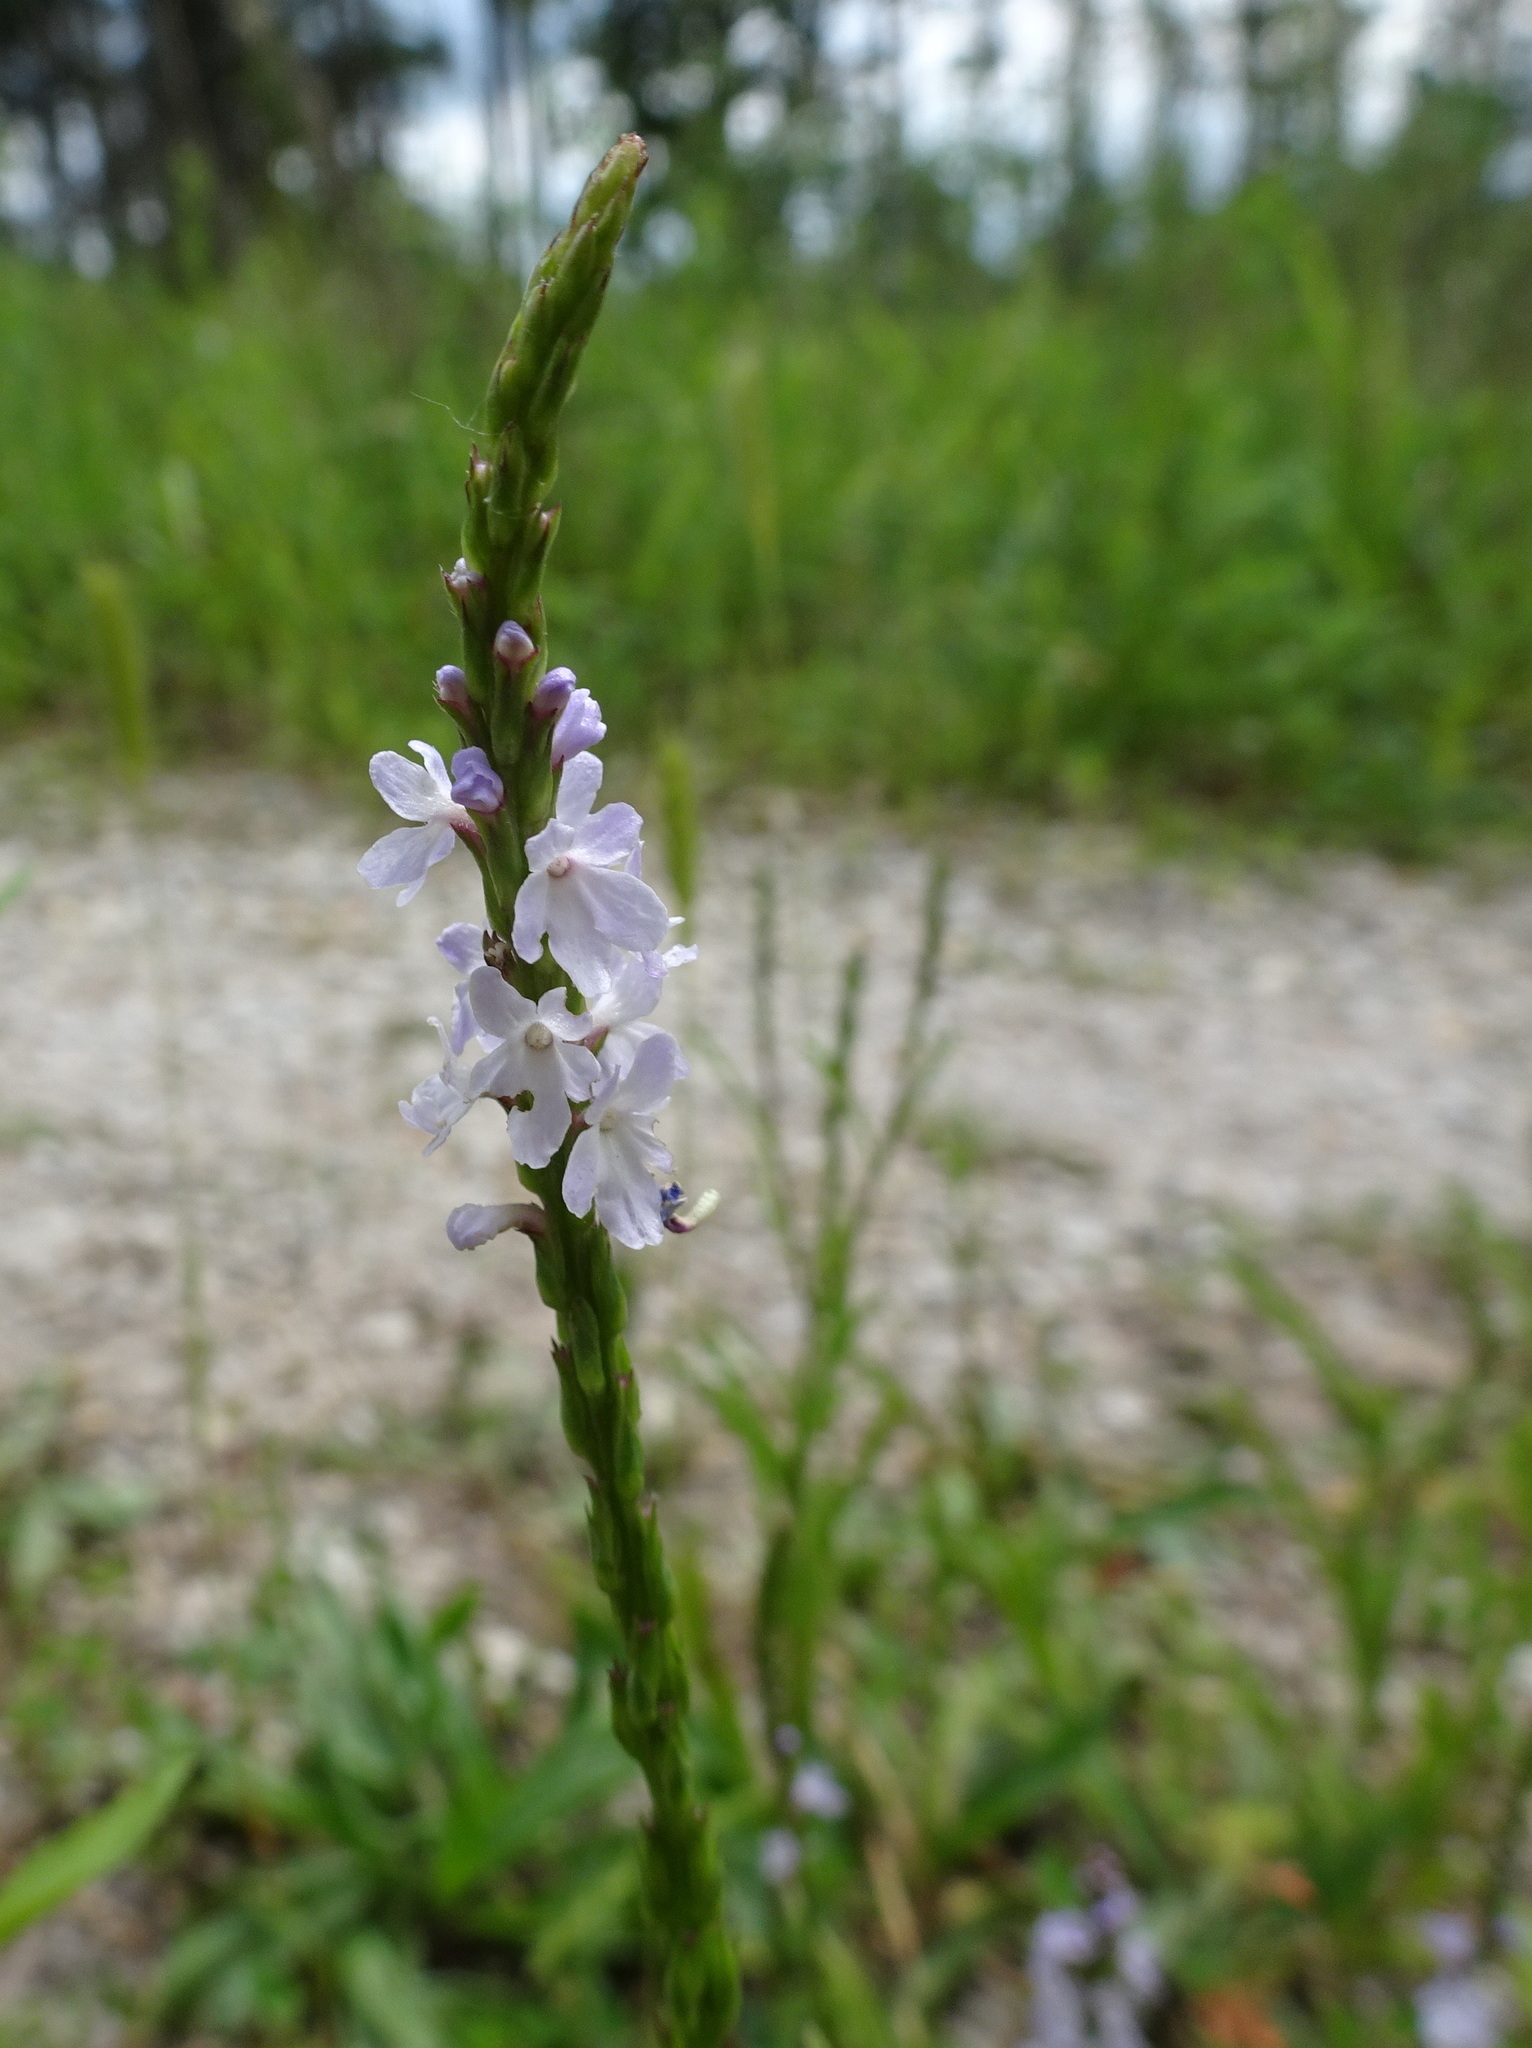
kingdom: Plantae
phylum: Tracheophyta
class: Magnoliopsida
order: Lamiales
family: Verbenaceae
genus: Verbena
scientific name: Verbena simplex
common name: Narrow-leaf vervain
